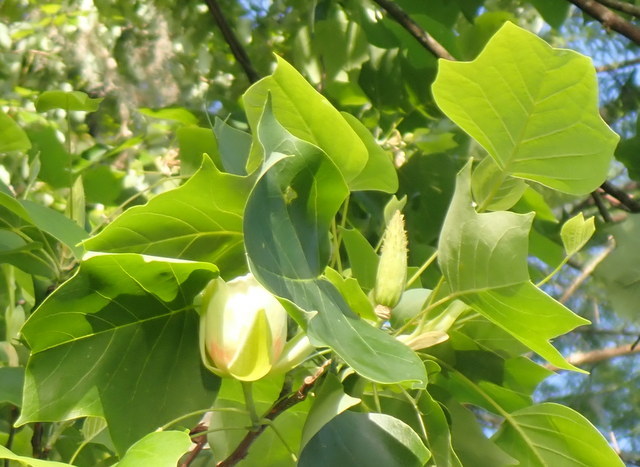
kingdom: Plantae
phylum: Tracheophyta
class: Magnoliopsida
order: Magnoliales
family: Magnoliaceae
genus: Liriodendron
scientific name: Liriodendron tulipifera
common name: Tulip tree
